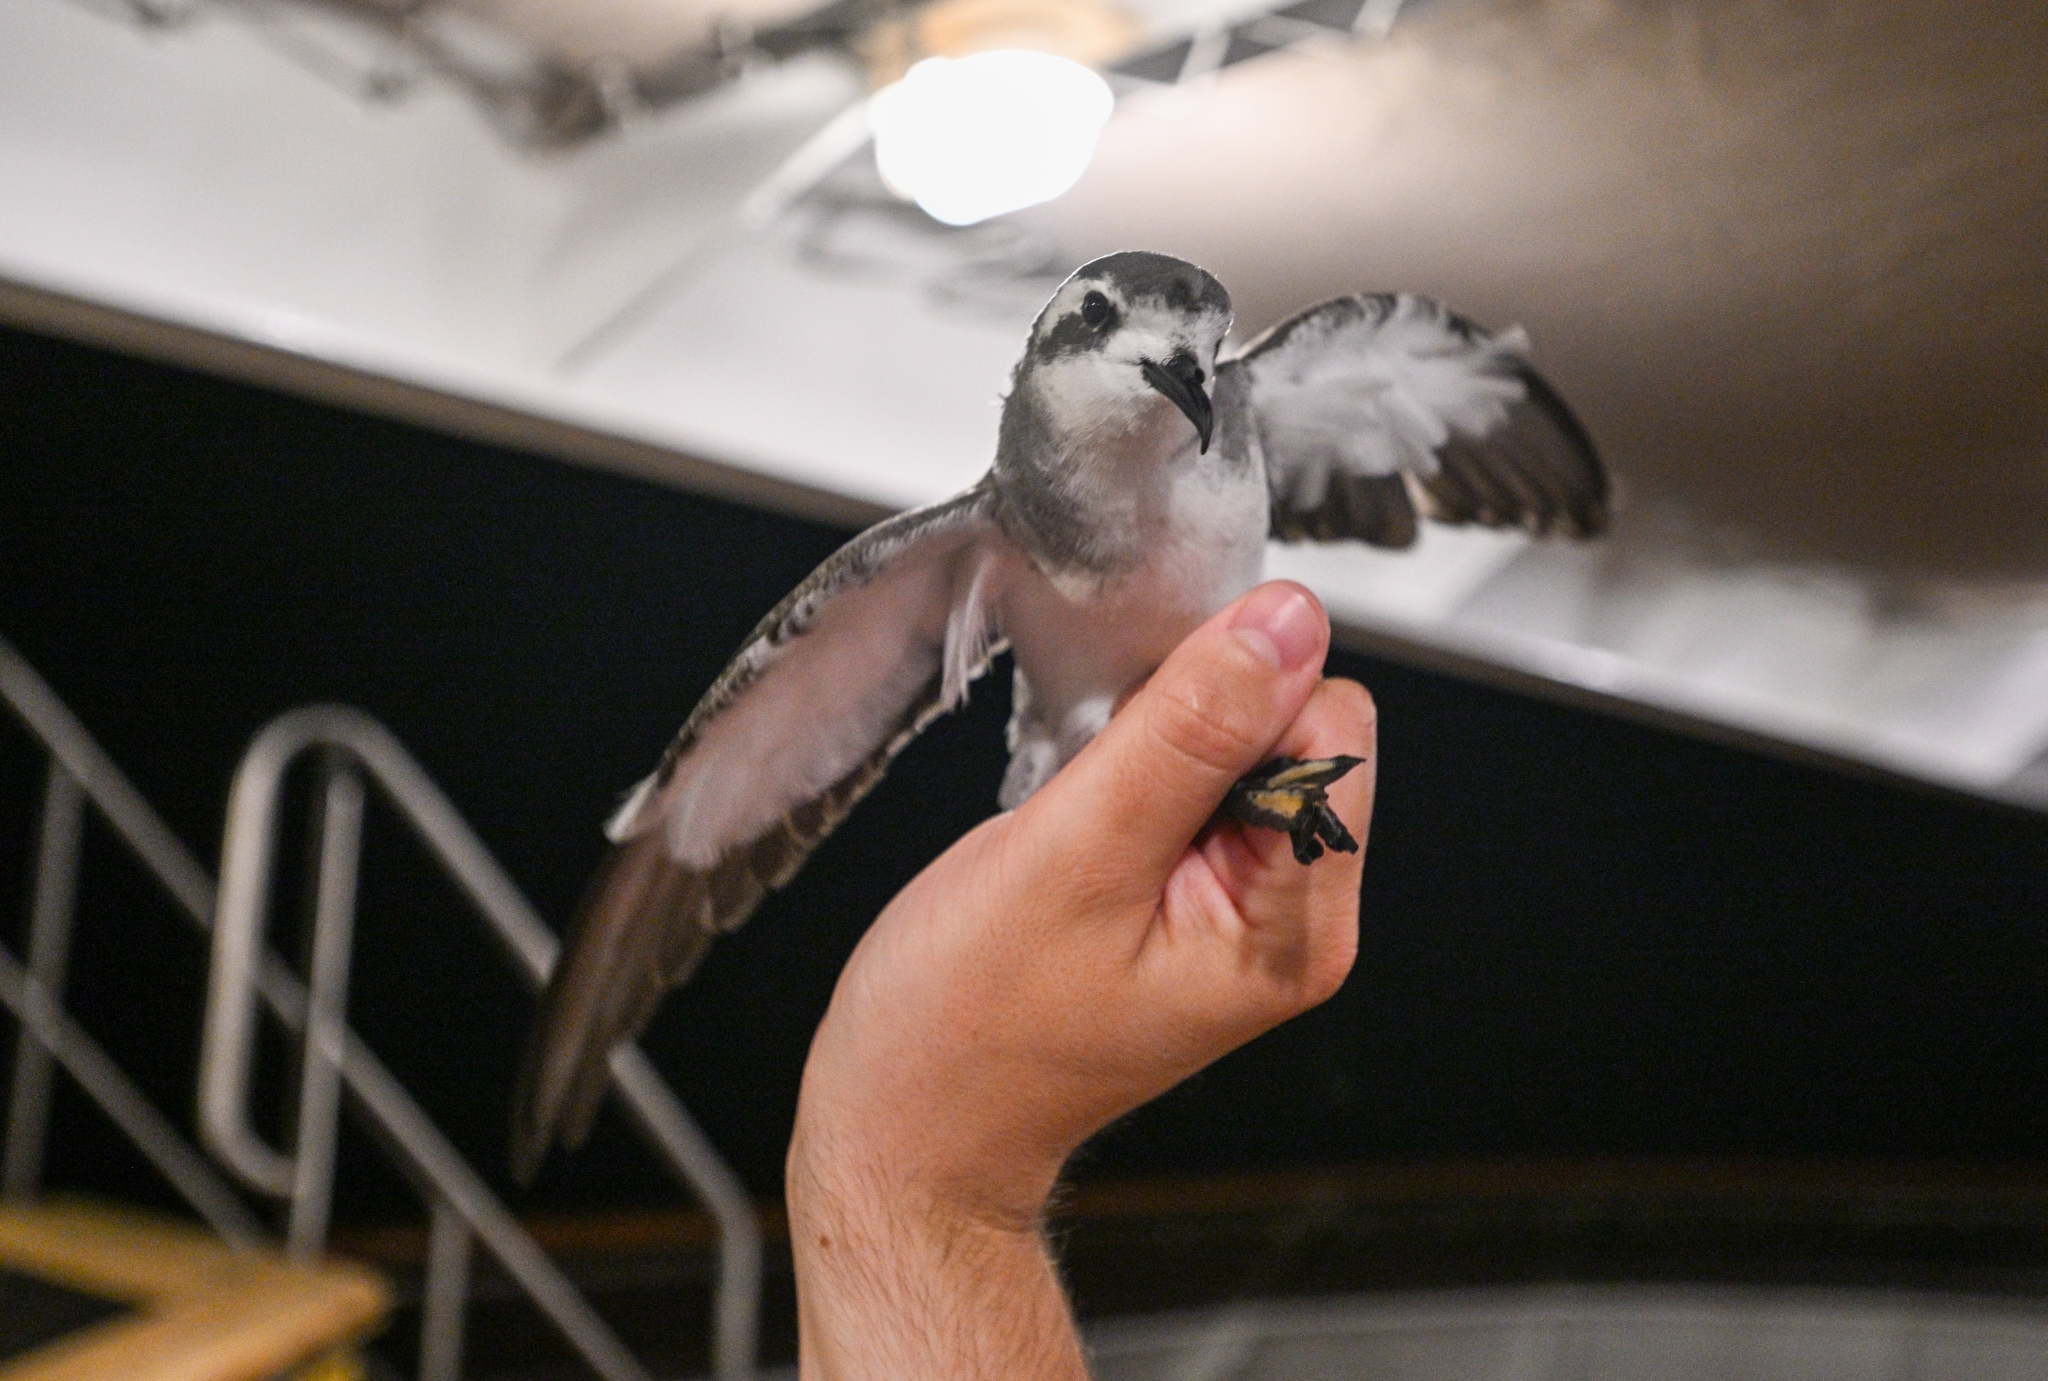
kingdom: Animalia
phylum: Chordata
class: Aves
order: Procellariiformes
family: Hydrobatidae
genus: Pelagodroma
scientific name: Pelagodroma marina
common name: White-faced storm-petrel
